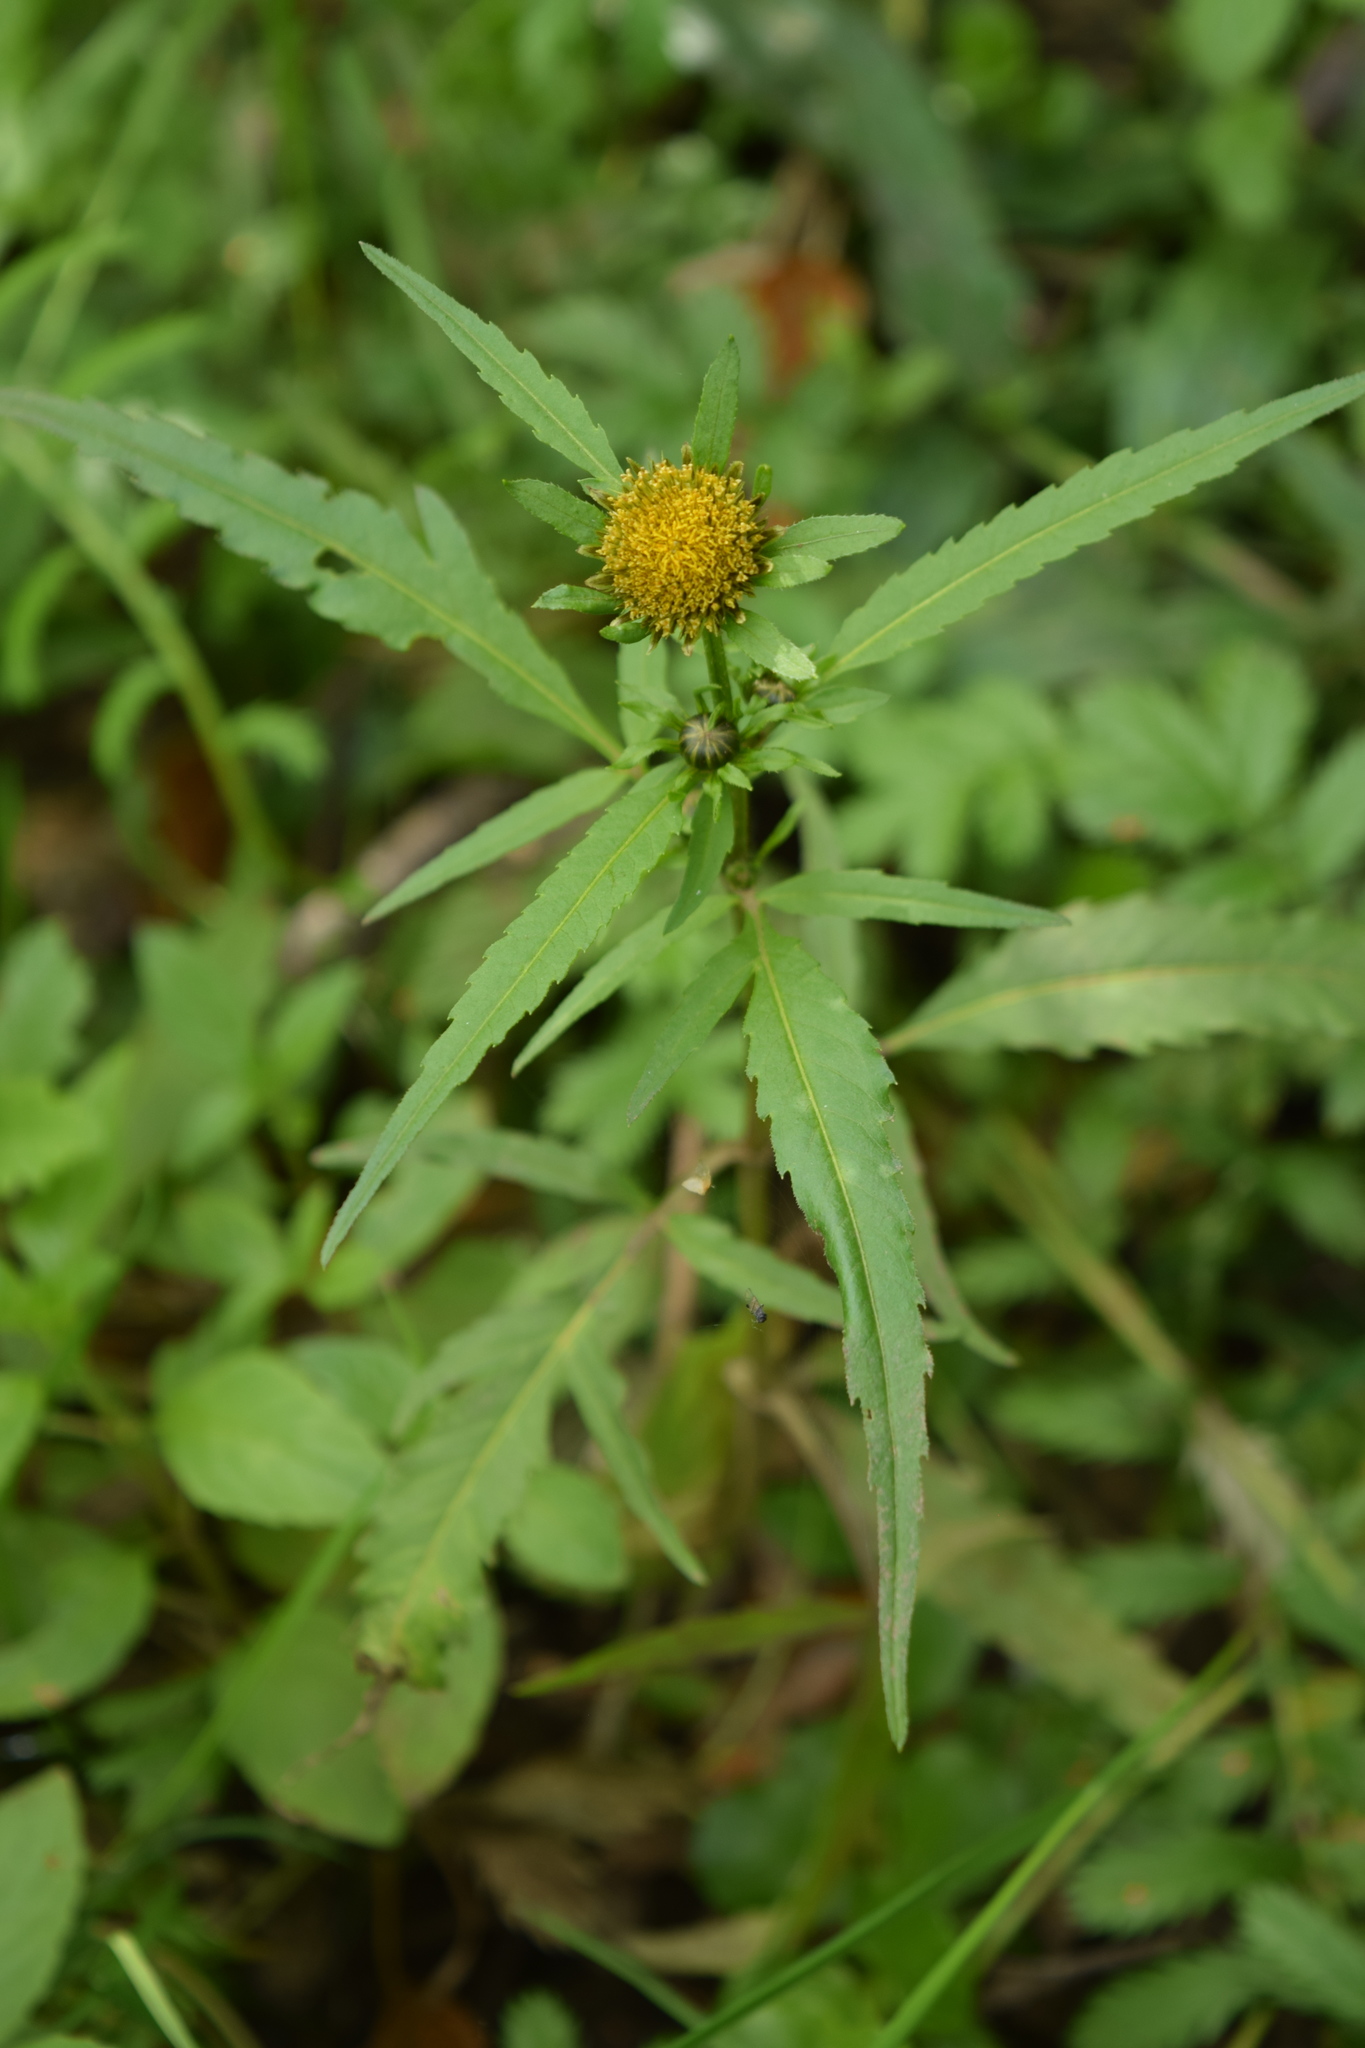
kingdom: Plantae
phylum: Tracheophyta
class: Magnoliopsida
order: Asterales
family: Asteraceae
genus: Bidens
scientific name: Bidens tripartita
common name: Trifid bur-marigold
